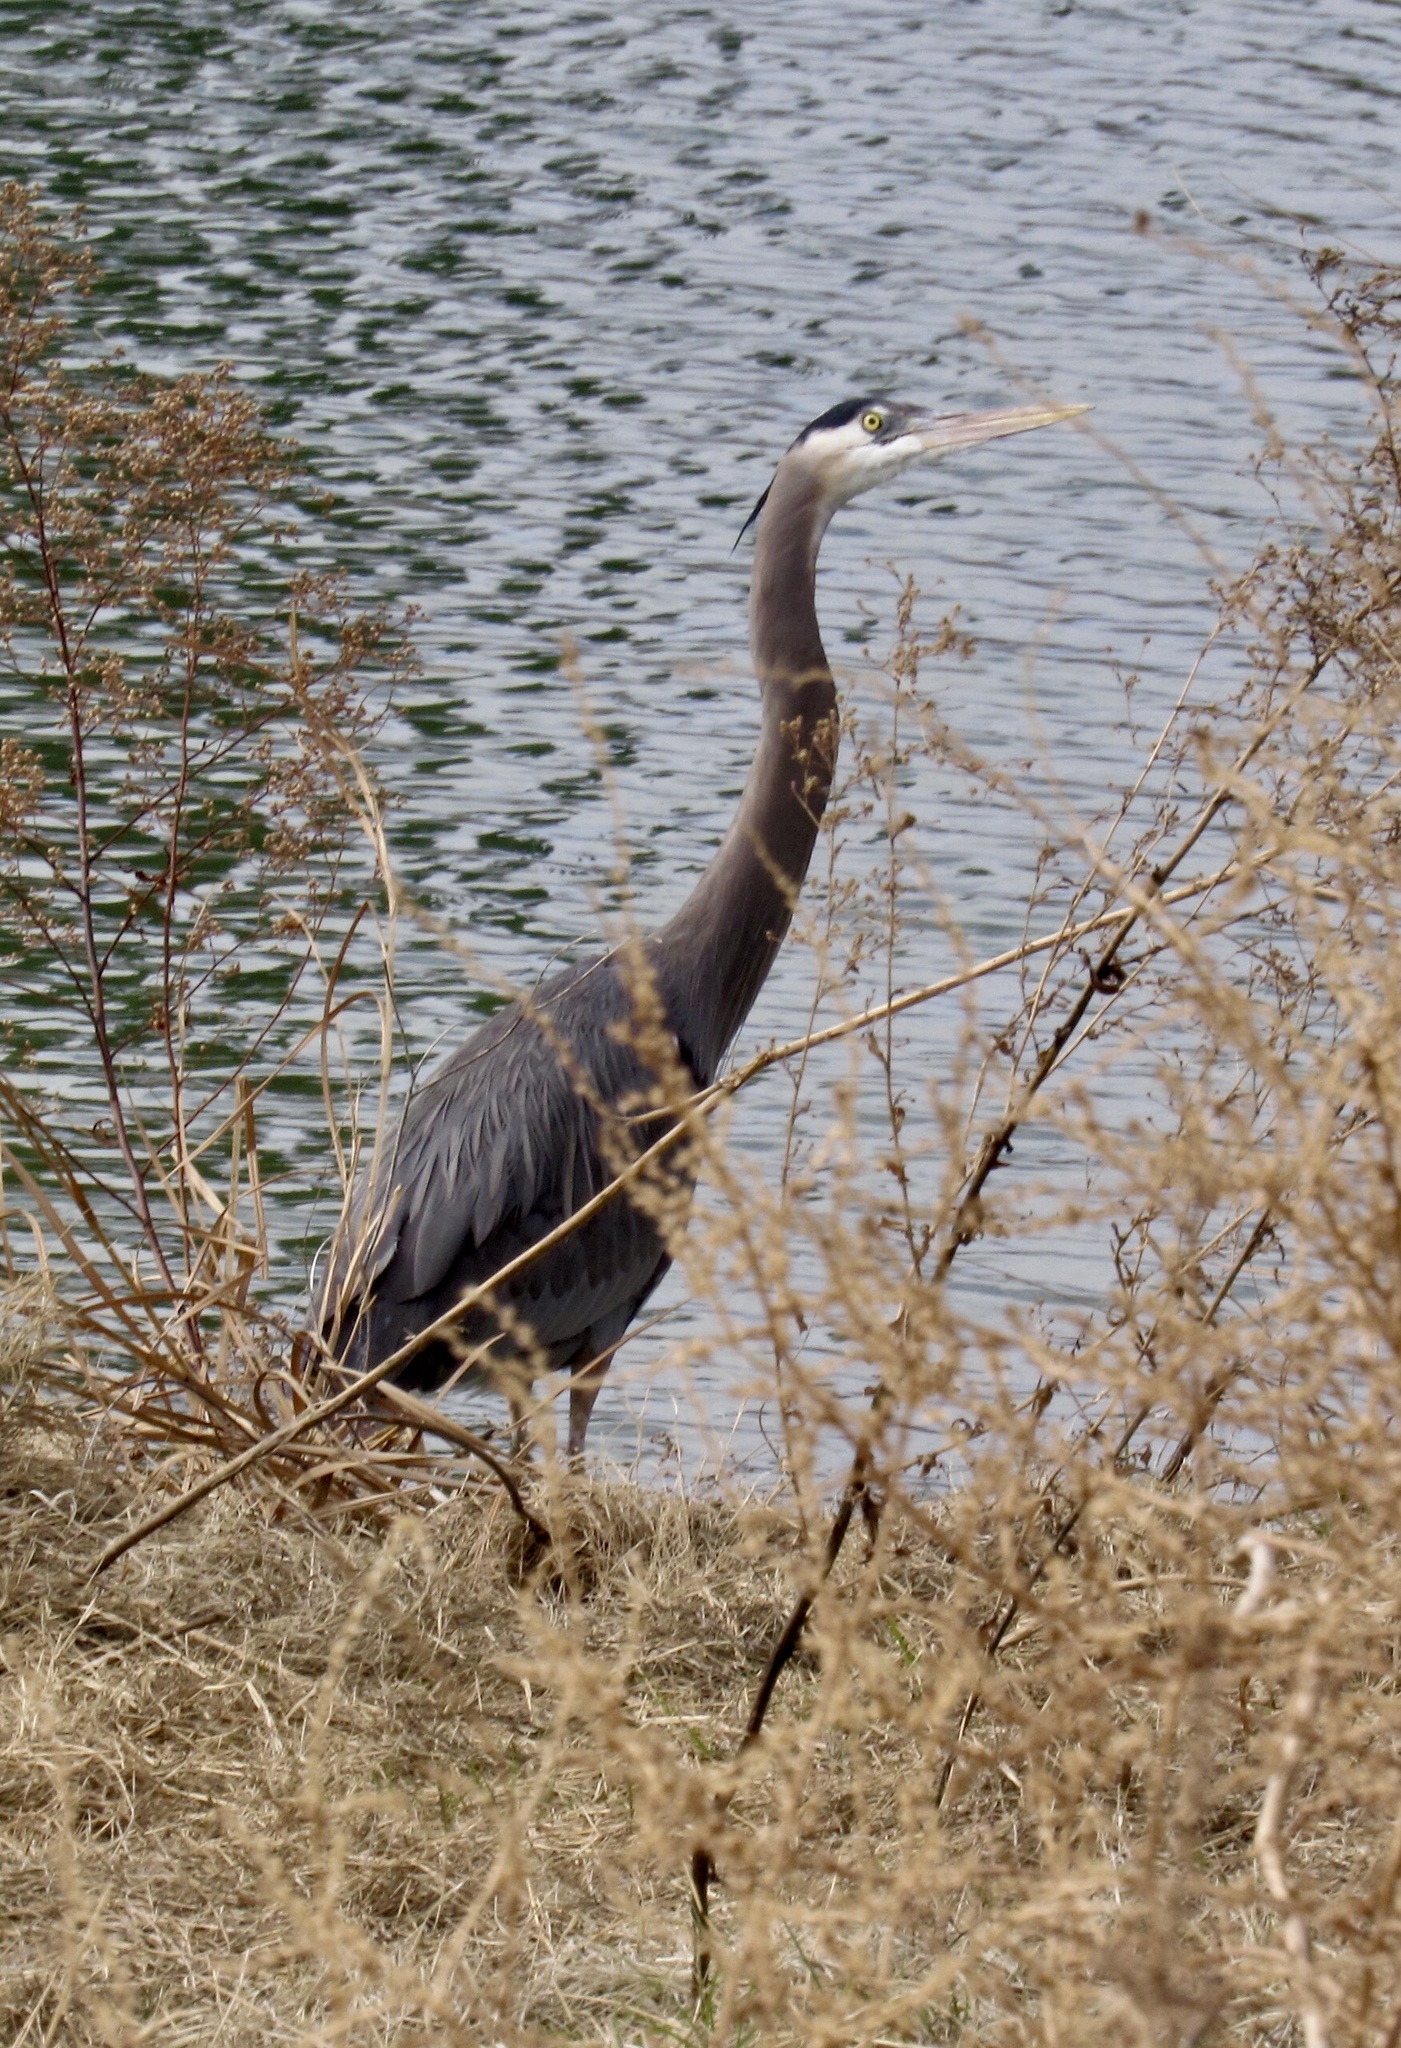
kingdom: Animalia
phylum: Chordata
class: Aves
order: Pelecaniformes
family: Ardeidae
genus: Ardea
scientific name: Ardea herodias
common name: Great blue heron
